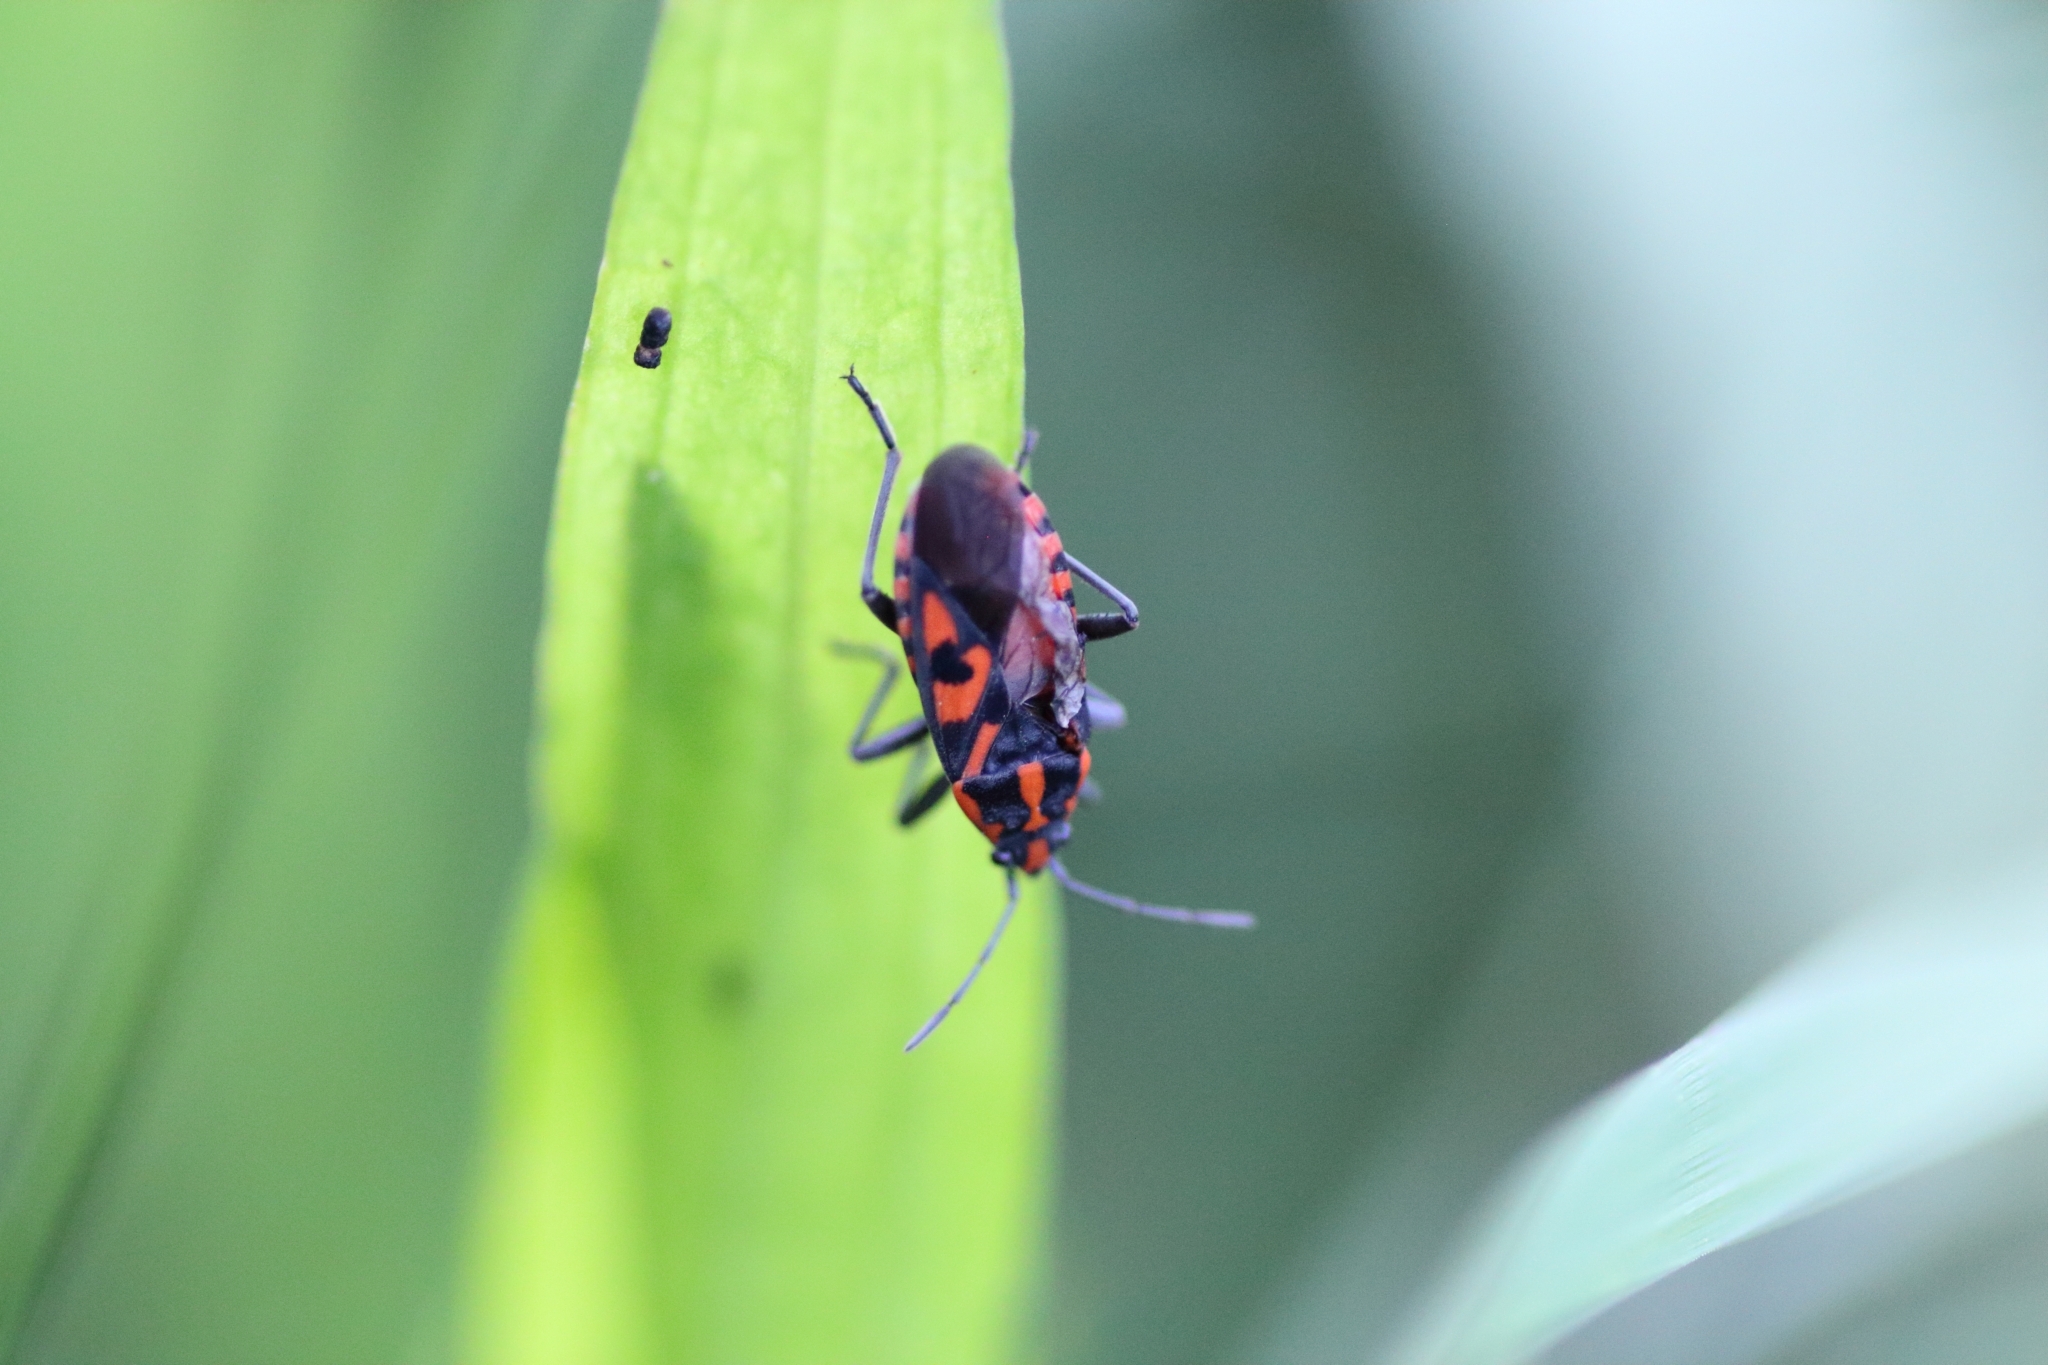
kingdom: Animalia
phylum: Arthropoda
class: Insecta
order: Hemiptera
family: Lygaeidae
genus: Spilostethus
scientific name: Spilostethus saxatilis
